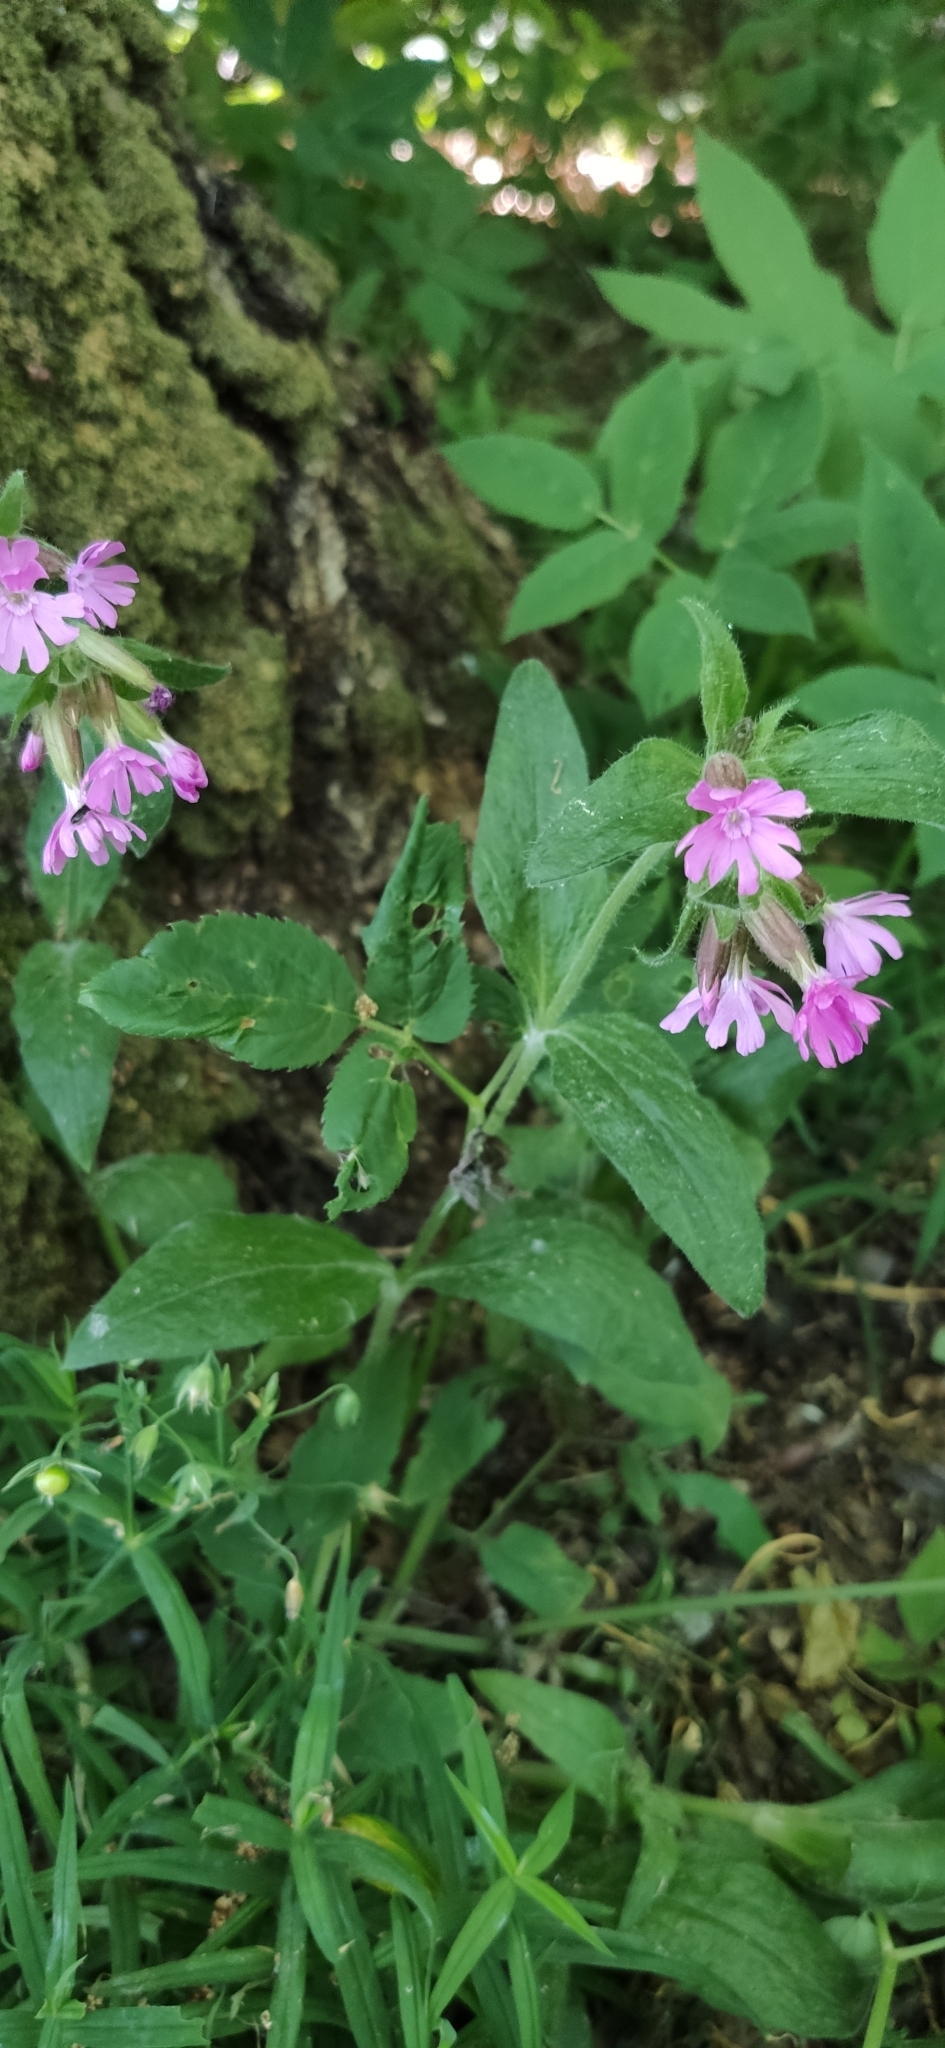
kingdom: Plantae
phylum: Tracheophyta
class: Magnoliopsida
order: Caryophyllales
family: Caryophyllaceae
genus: Silene
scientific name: Silene dioica
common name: Red campion
